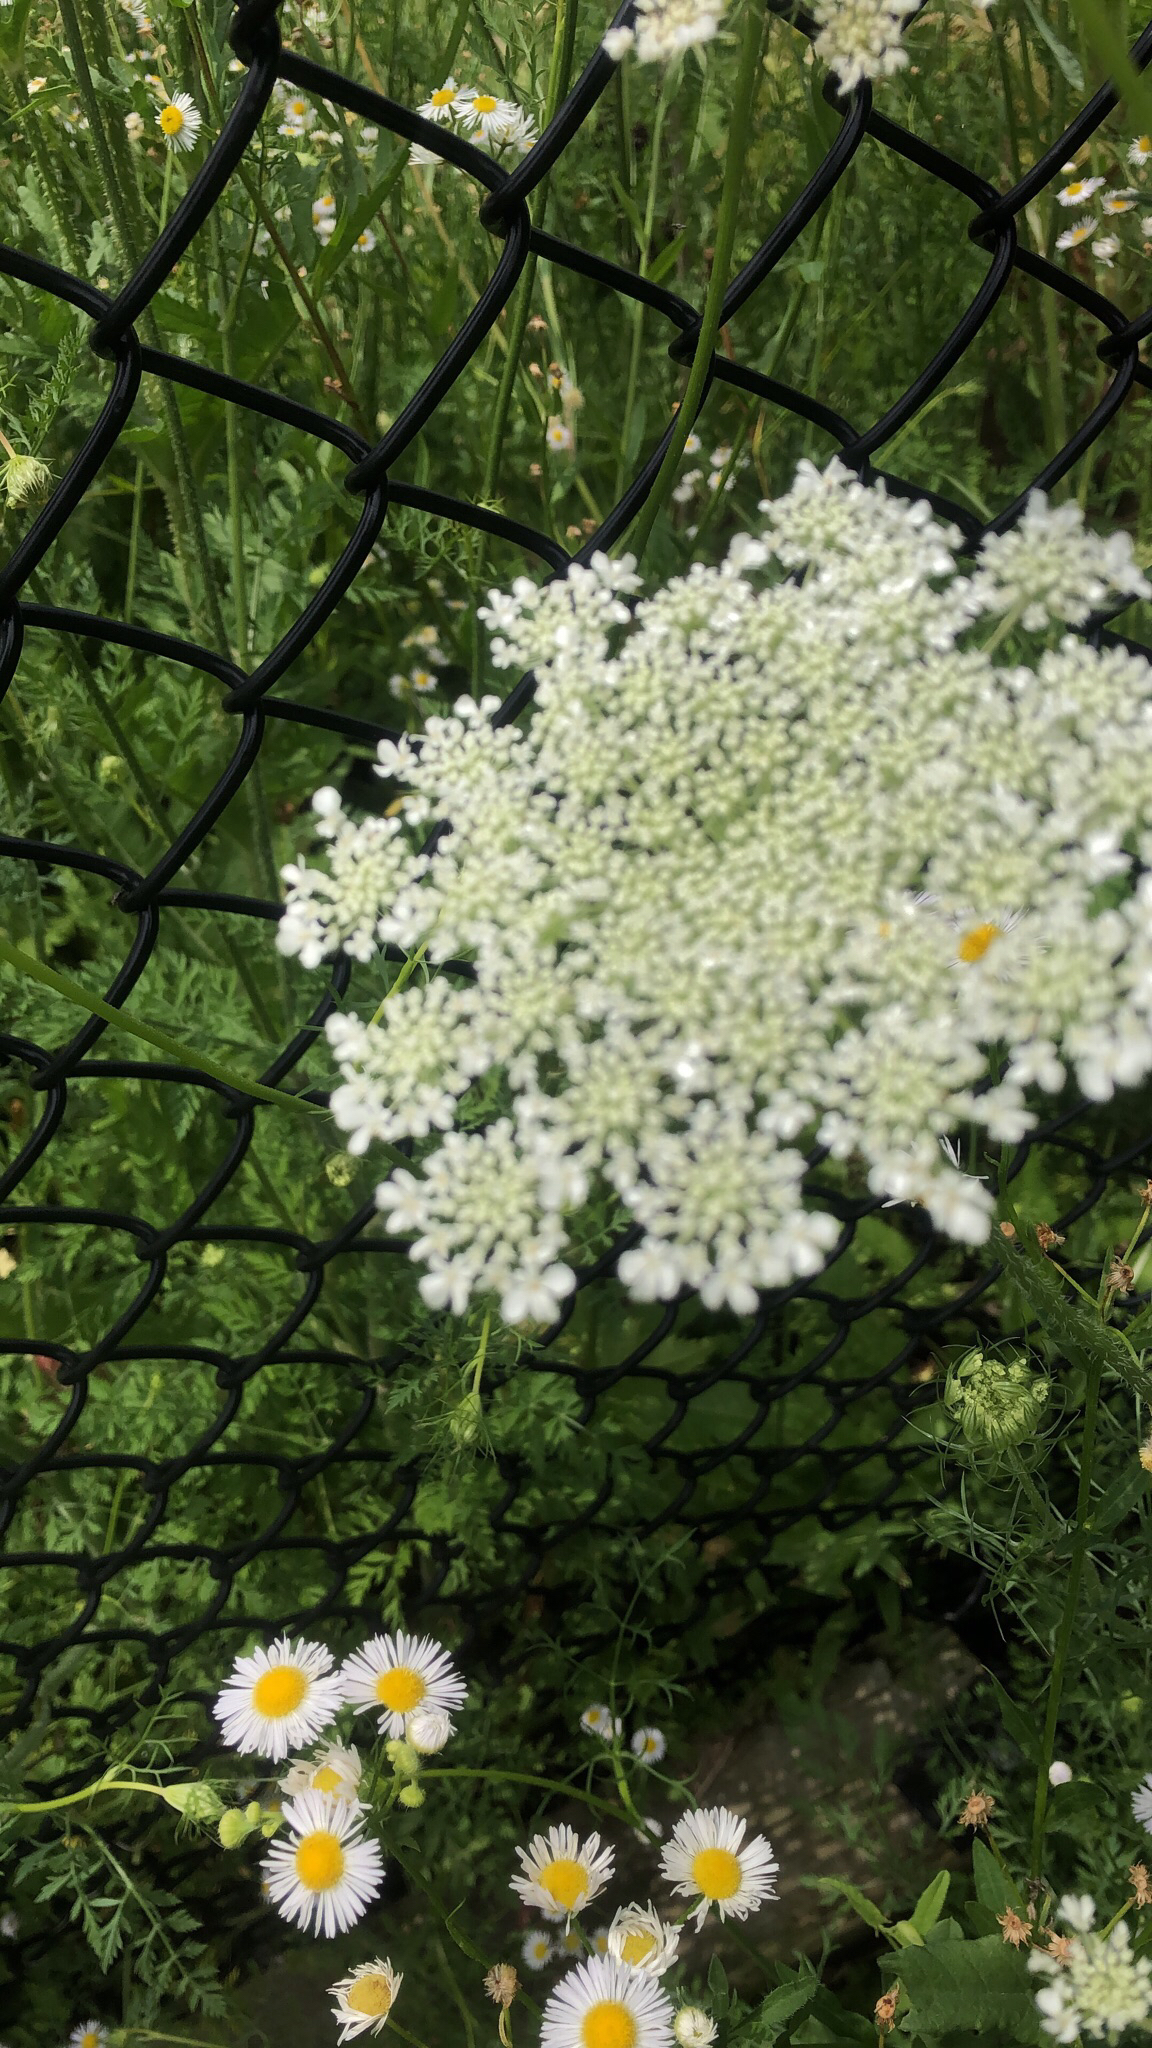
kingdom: Plantae
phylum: Tracheophyta
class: Magnoliopsida
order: Apiales
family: Apiaceae
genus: Daucus
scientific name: Daucus carota
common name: Wild carrot
